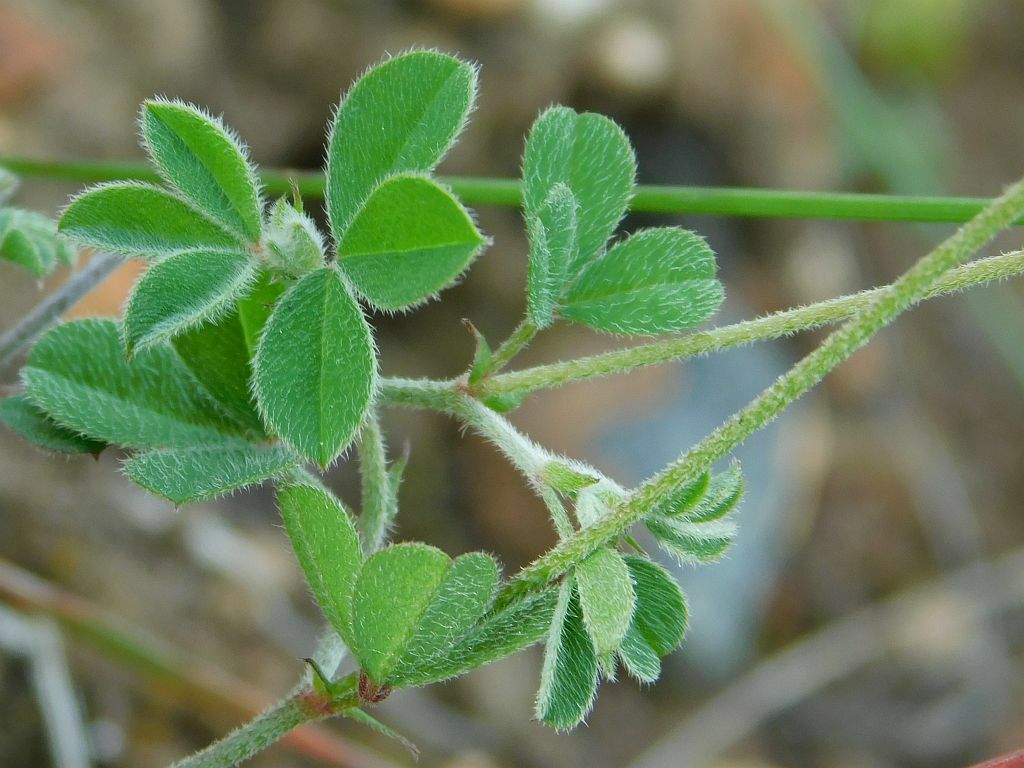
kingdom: Plantae
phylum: Tracheophyta
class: Magnoliopsida
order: Fabales
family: Fabaceae
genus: Indigofera
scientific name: Indigofera incana
